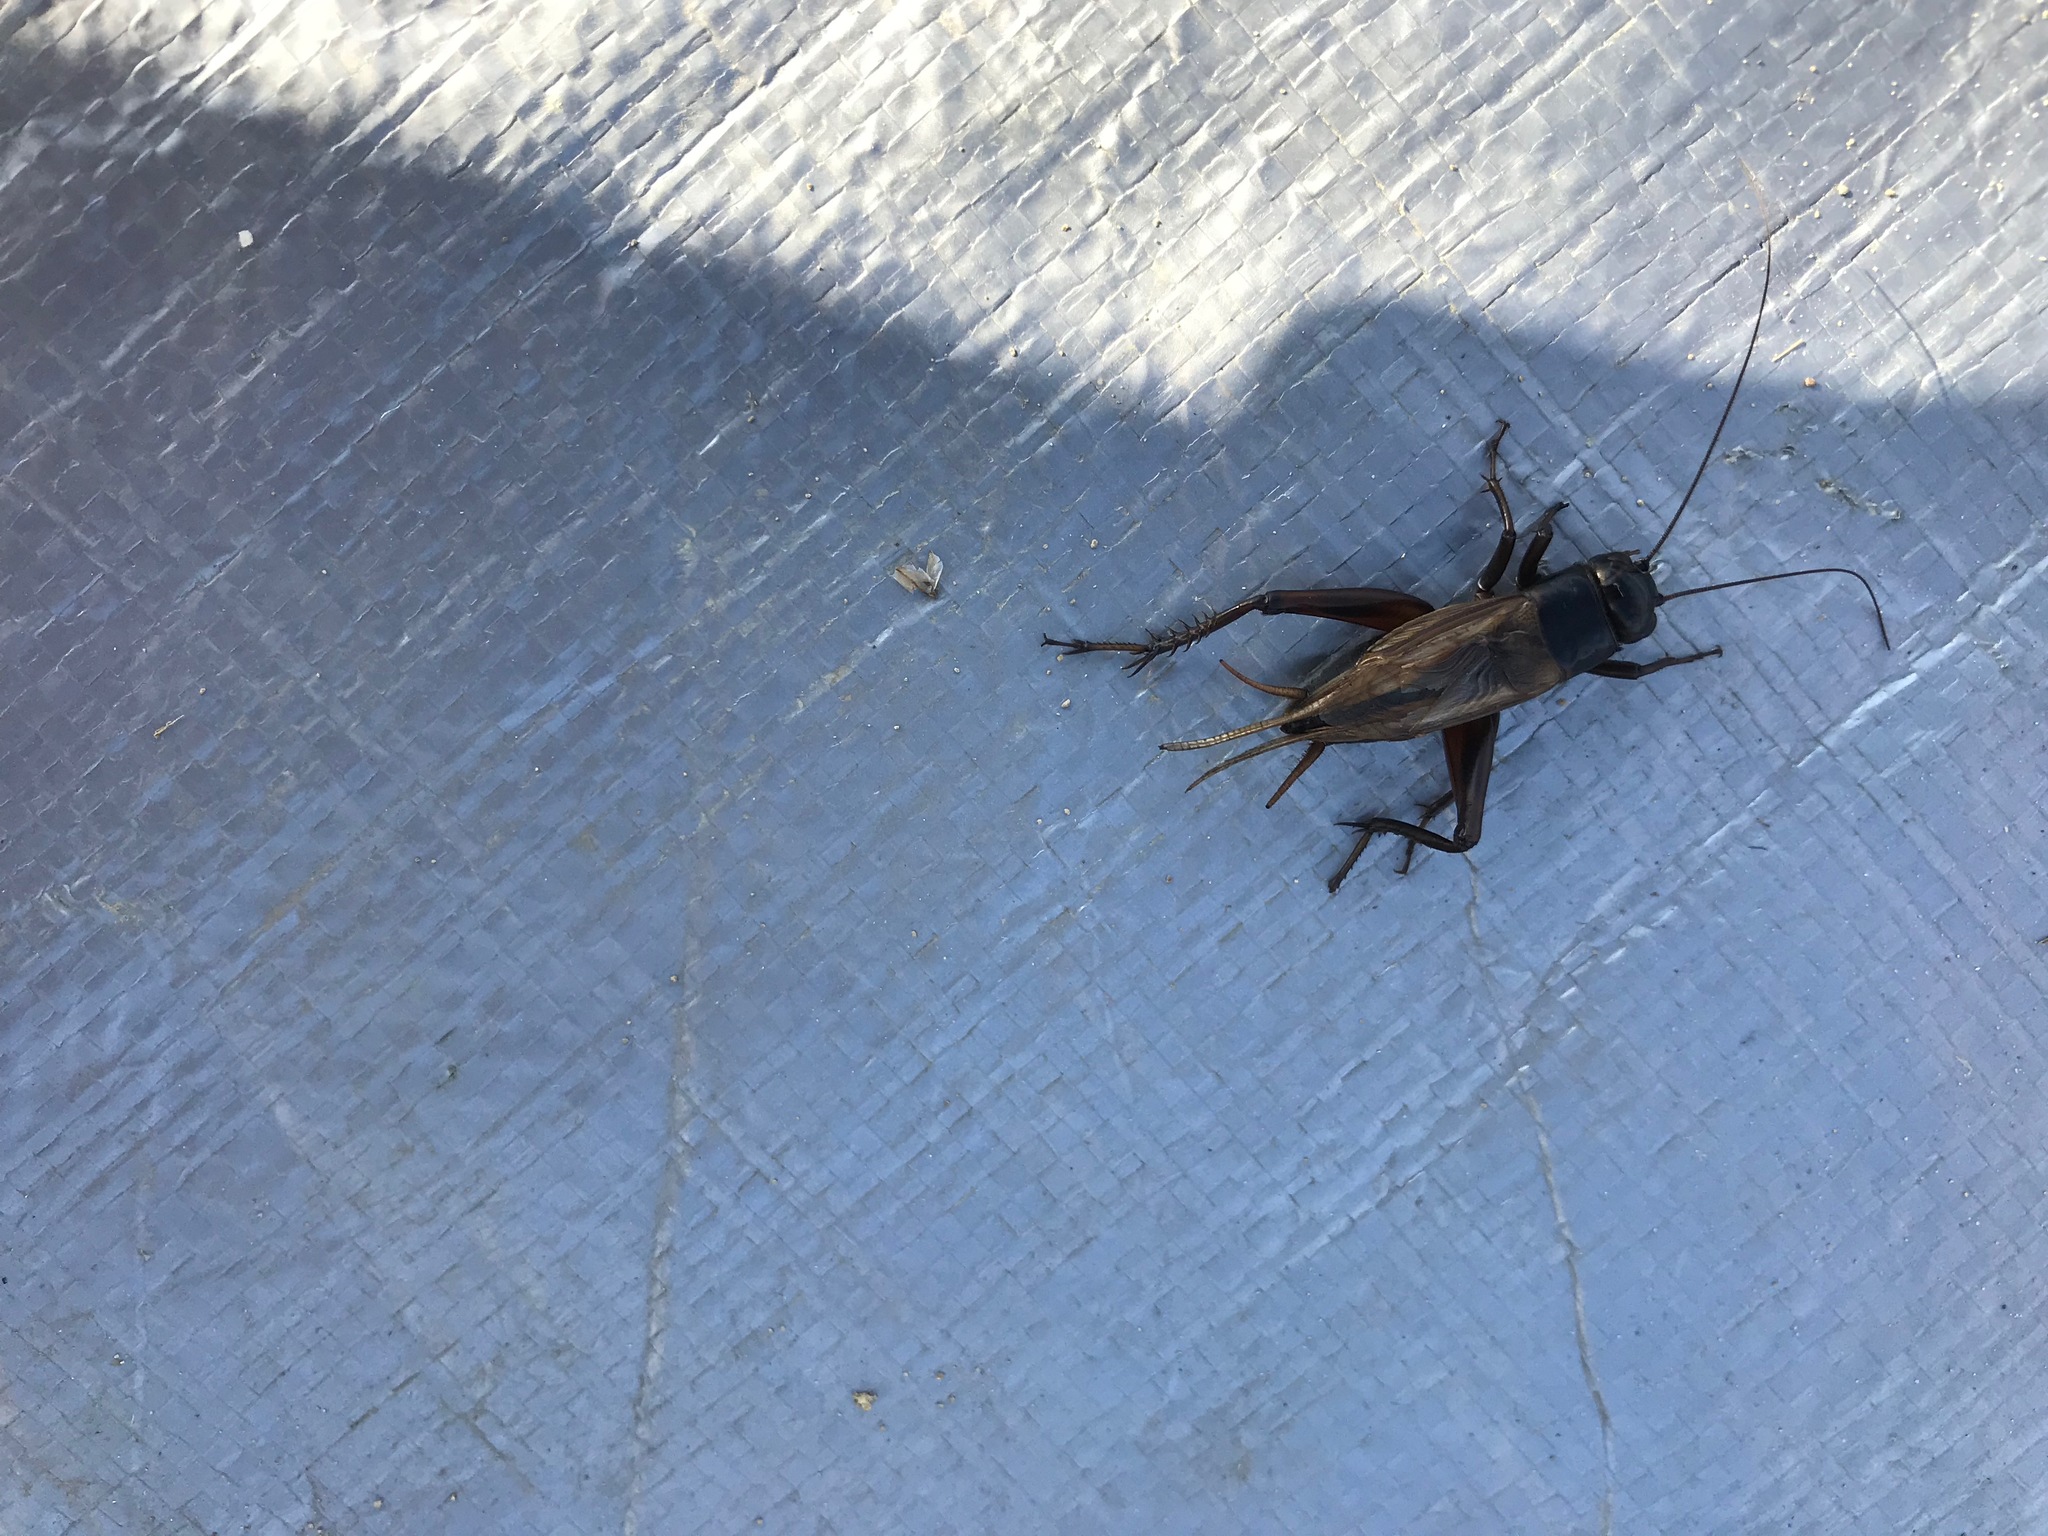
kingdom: Animalia
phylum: Arthropoda
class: Insecta
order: Orthoptera
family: Gryllidae
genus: Teleogryllus
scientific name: Teleogryllus commodus
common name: Black field cricket
